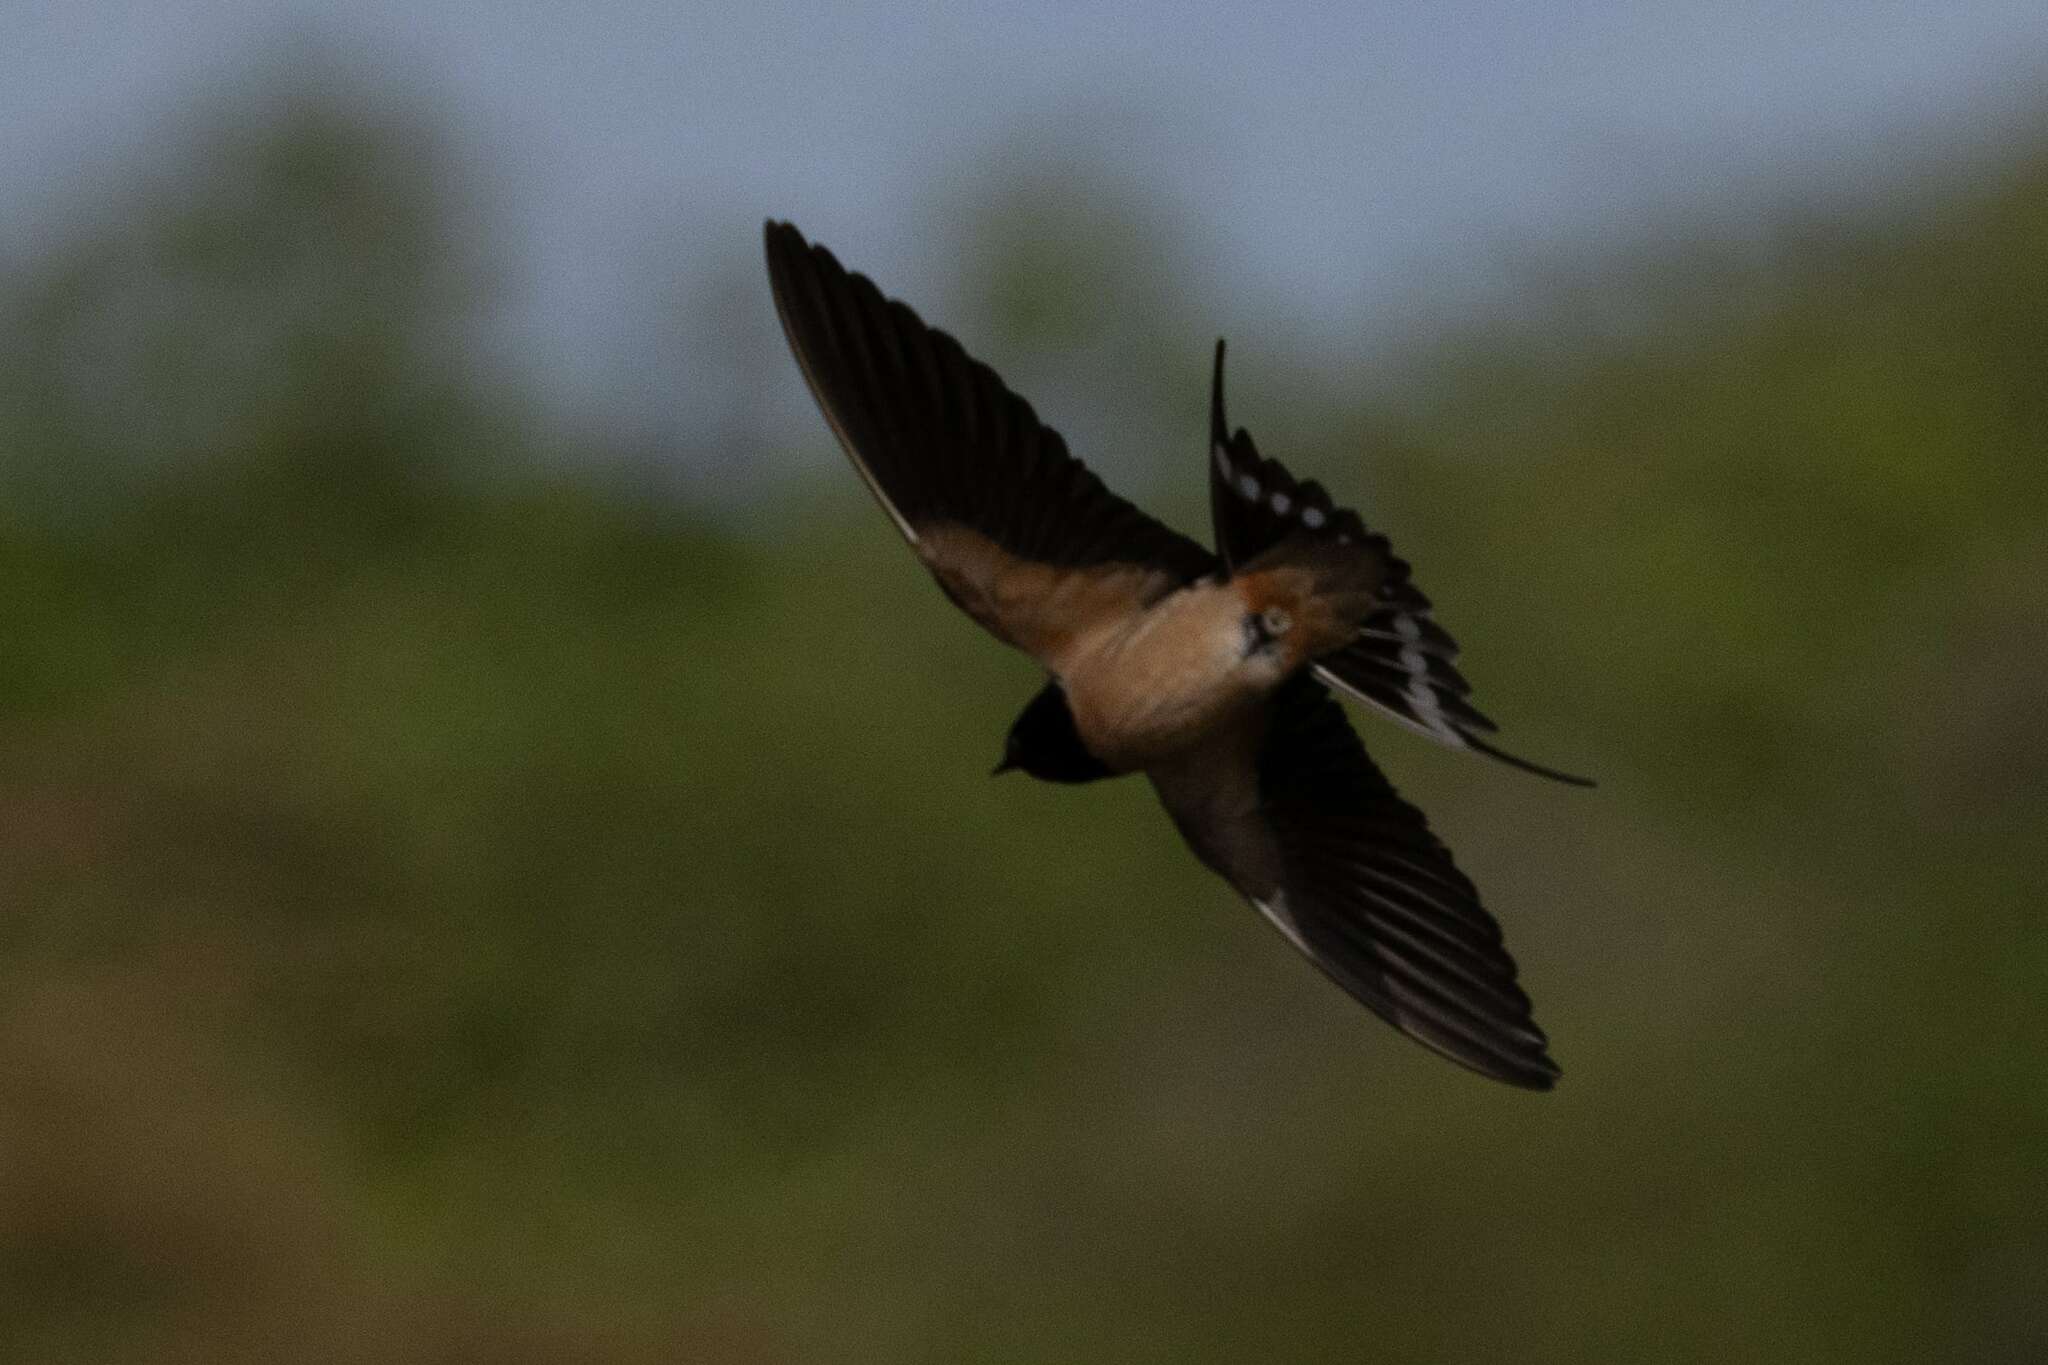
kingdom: Animalia
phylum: Chordata
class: Aves
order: Passeriformes
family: Hirundinidae
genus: Hirundo
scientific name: Hirundo rustica
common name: Barn swallow
